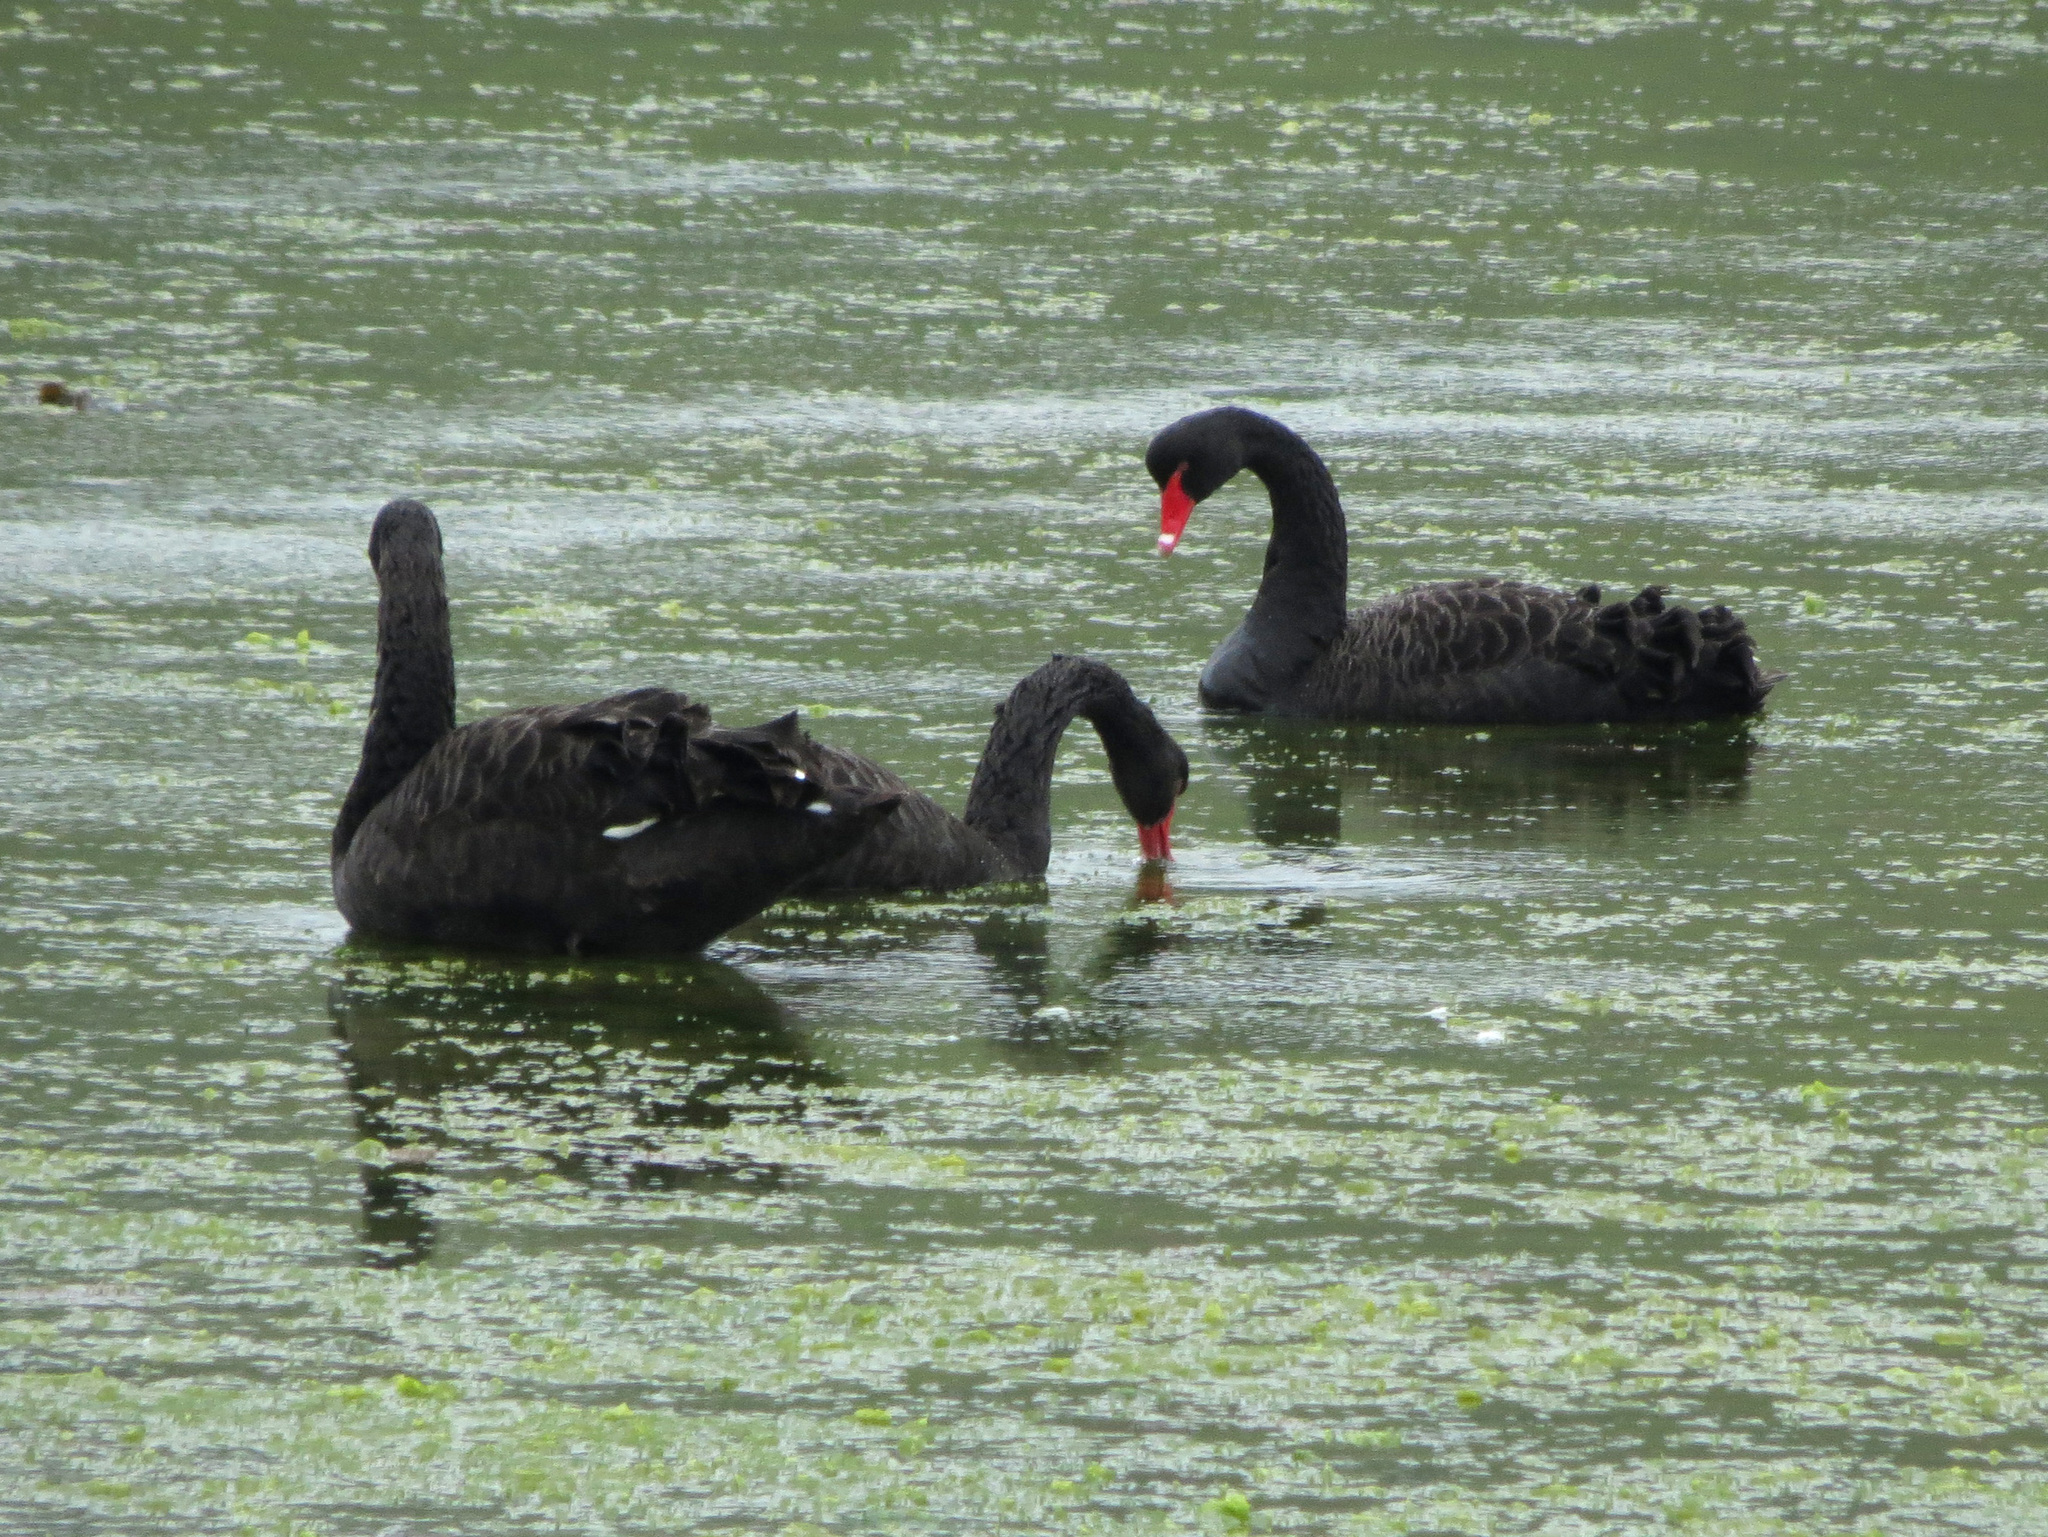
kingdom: Animalia
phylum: Chordata
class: Aves
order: Anseriformes
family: Anatidae
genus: Cygnus
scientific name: Cygnus atratus
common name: Black swan
